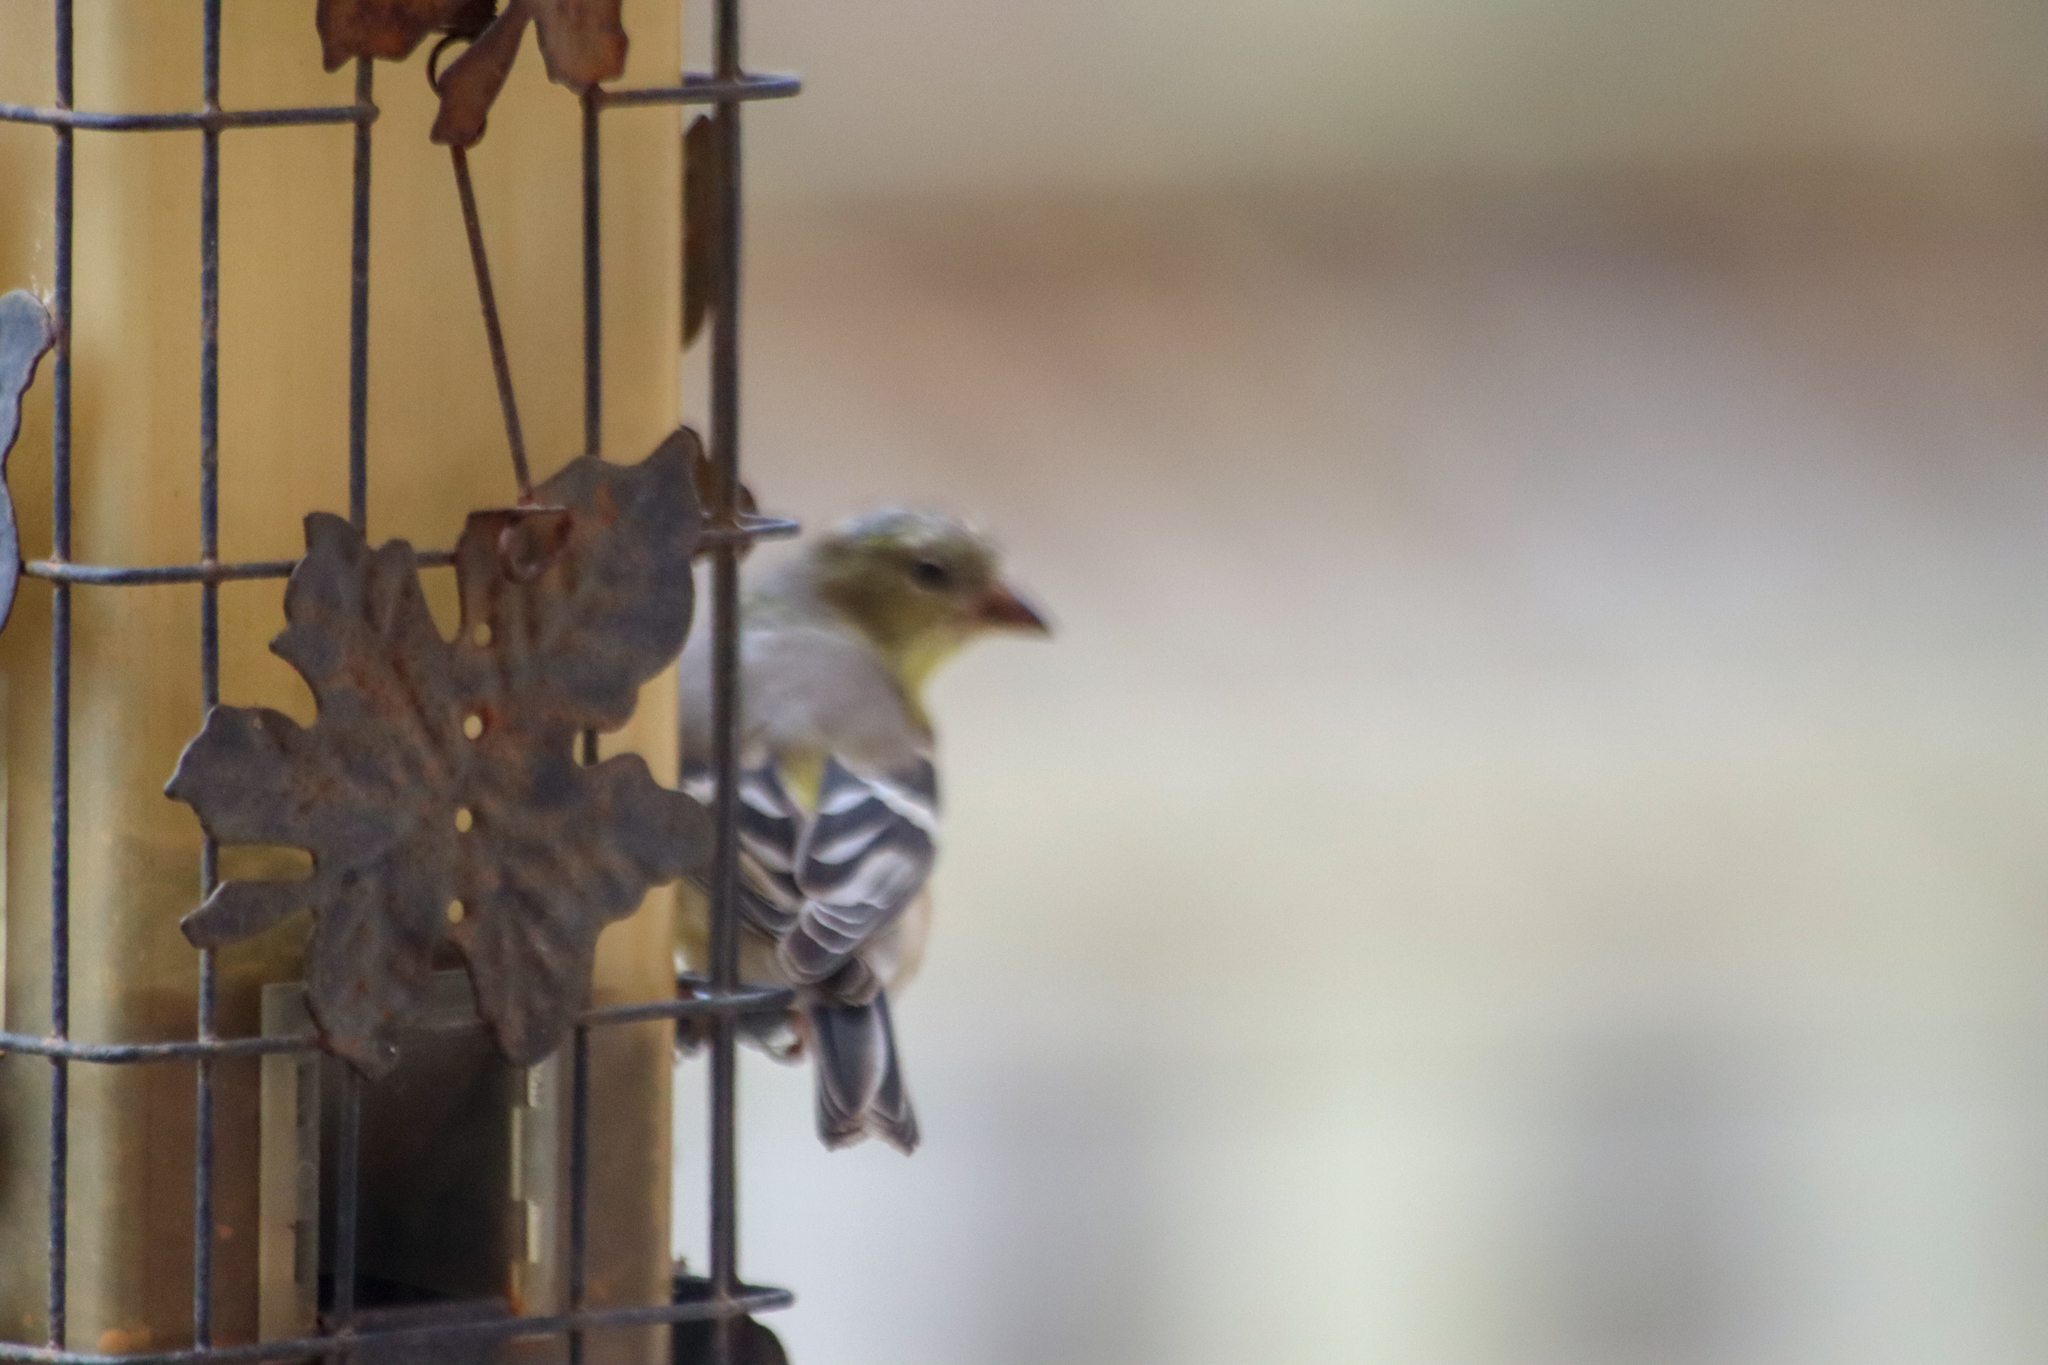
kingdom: Animalia
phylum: Chordata
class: Aves
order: Passeriformes
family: Fringillidae
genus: Spinus
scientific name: Spinus tristis
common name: American goldfinch
